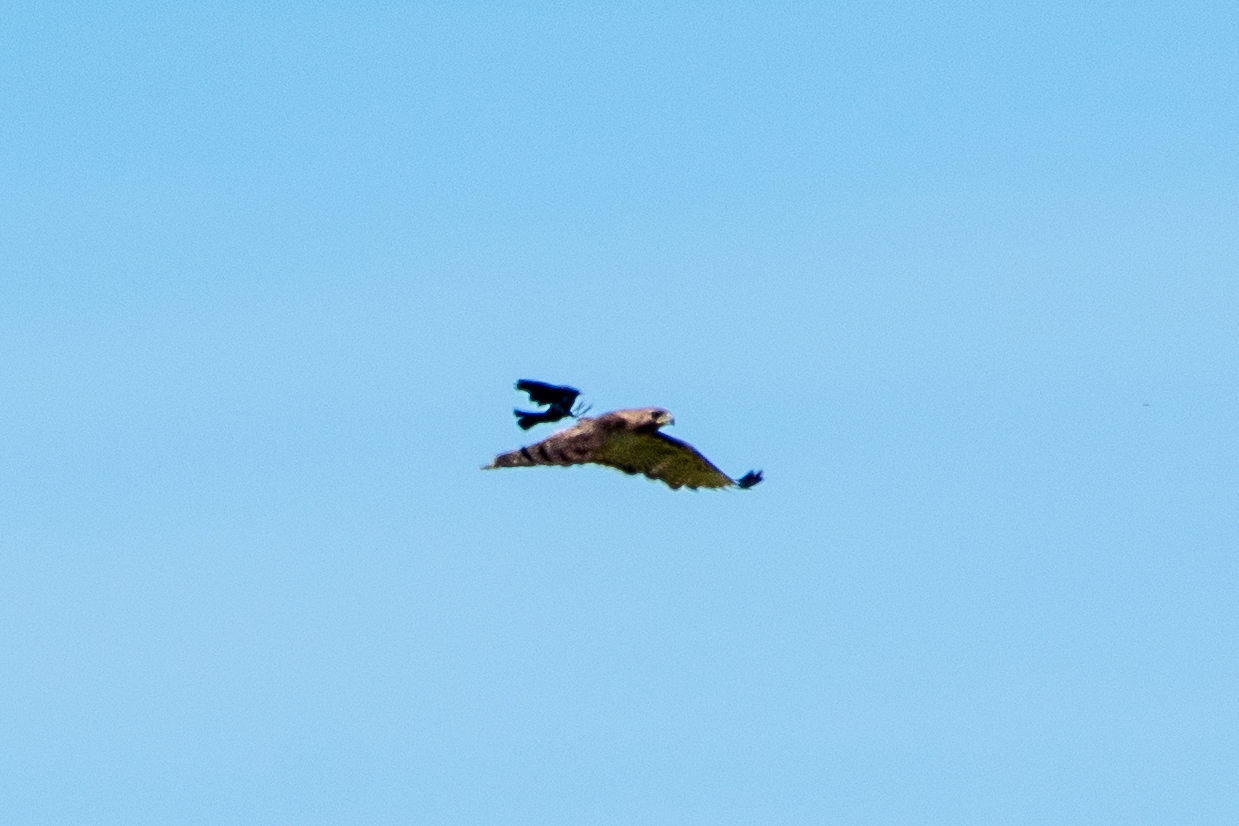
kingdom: Animalia
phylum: Chordata
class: Aves
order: Accipitriformes
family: Accipitridae
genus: Buteo
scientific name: Buteo jamaicensis
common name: Red-tailed hawk
